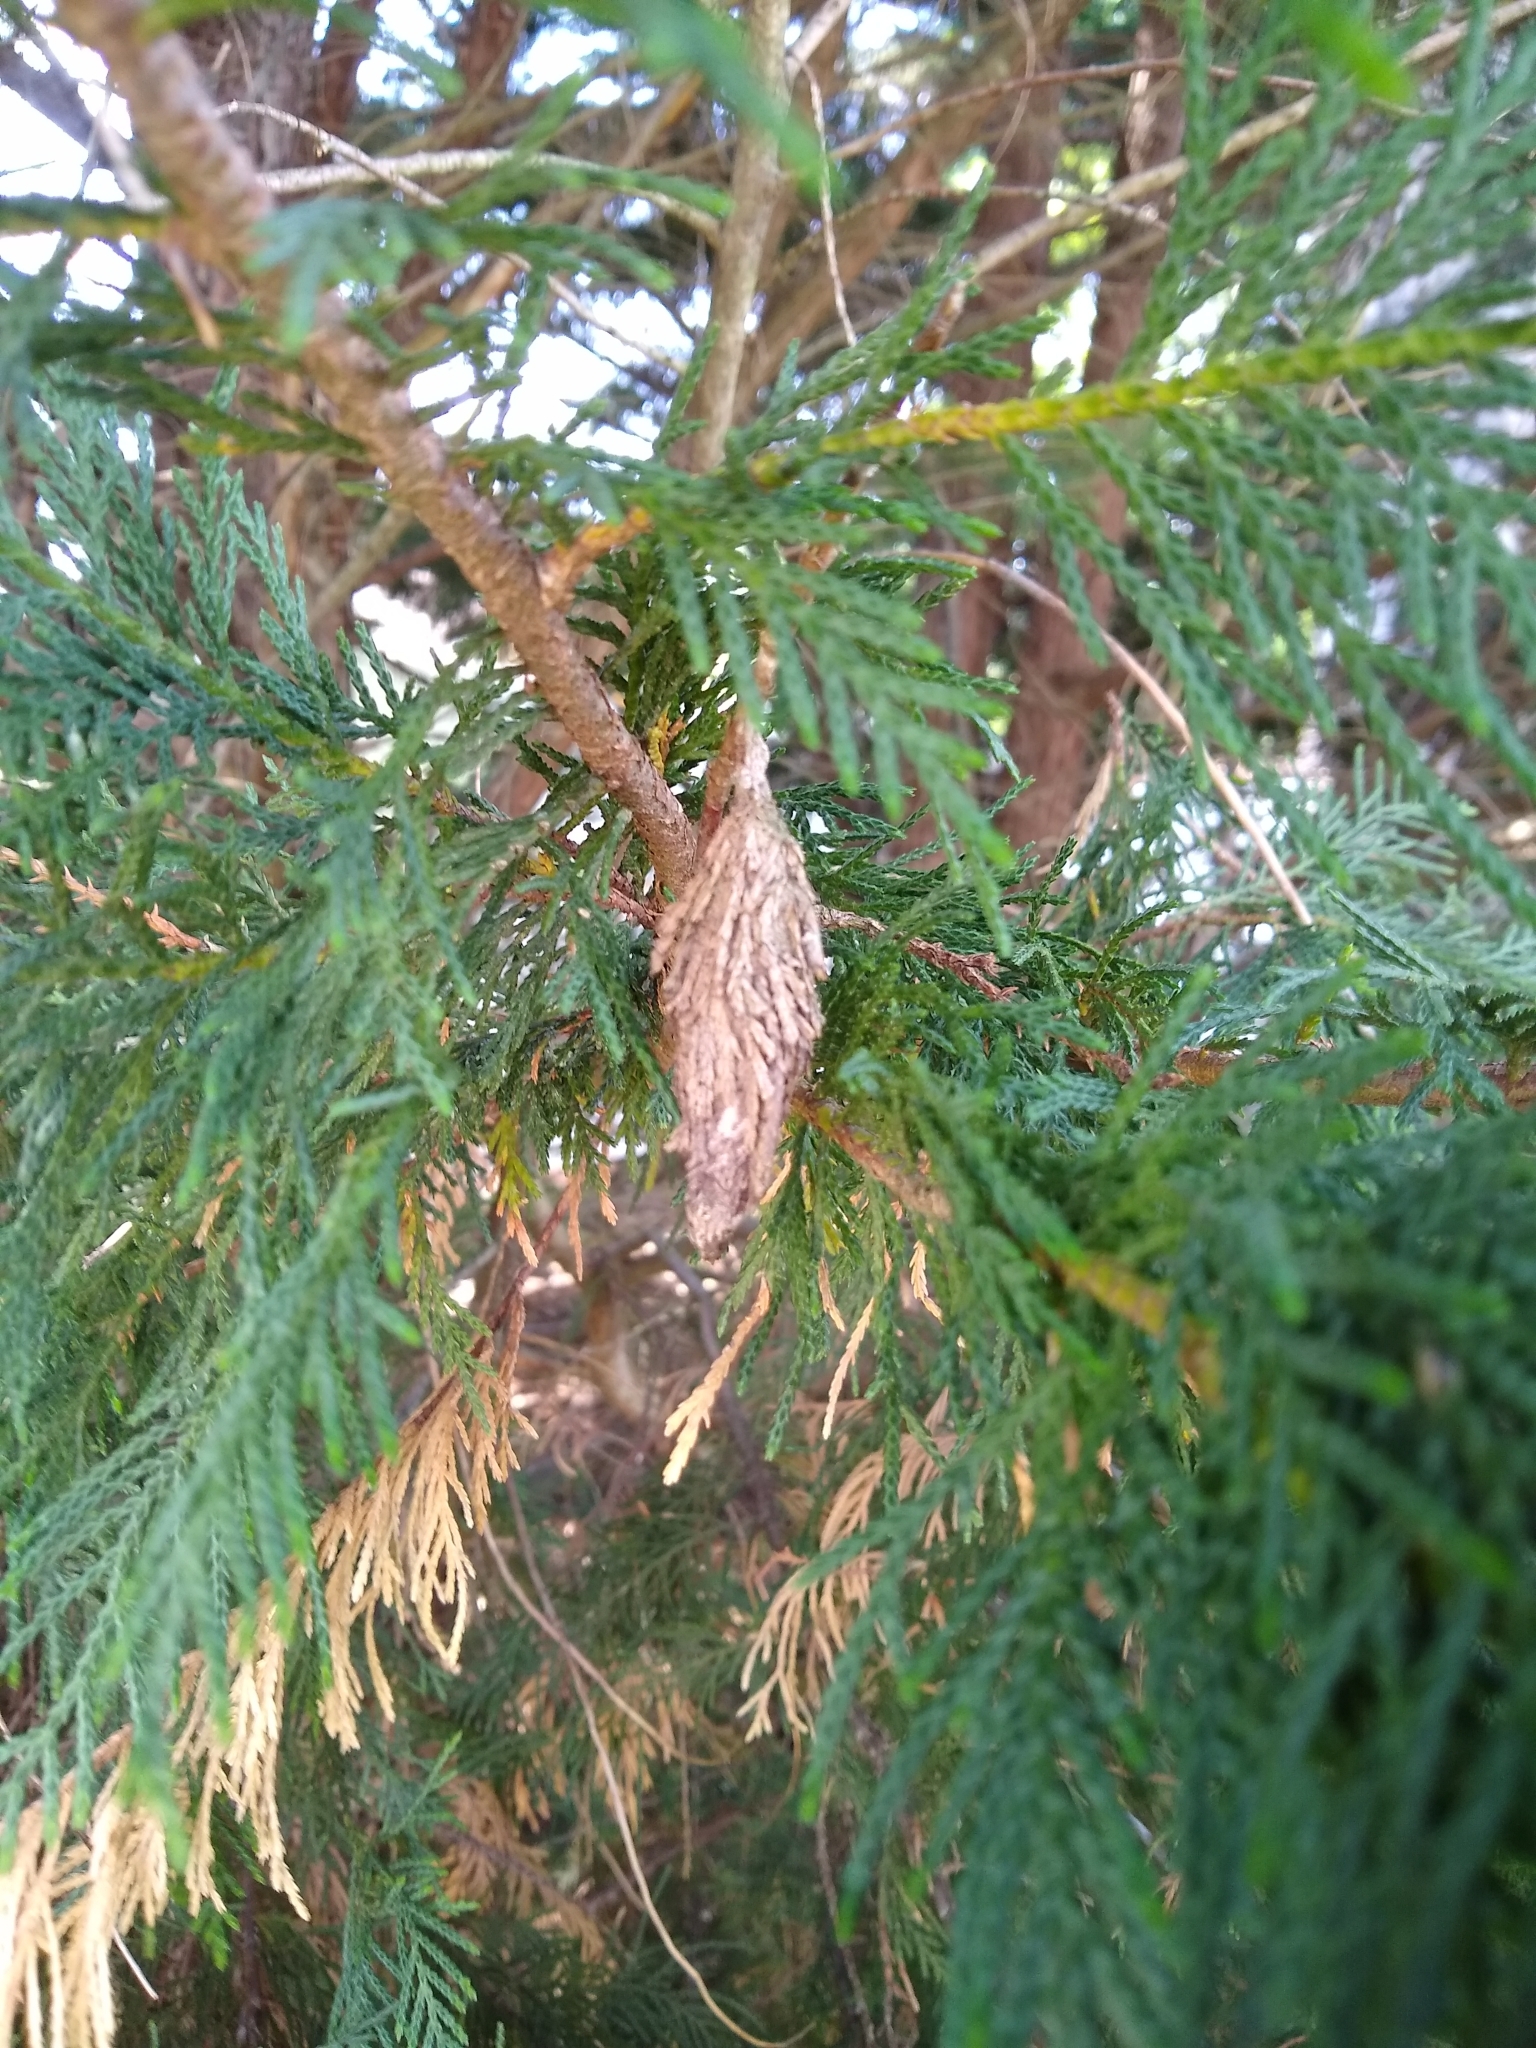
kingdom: Animalia
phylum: Arthropoda
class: Insecta
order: Lepidoptera
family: Psychidae
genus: Thyridopteryx
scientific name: Thyridopteryx ephemeraeformis
